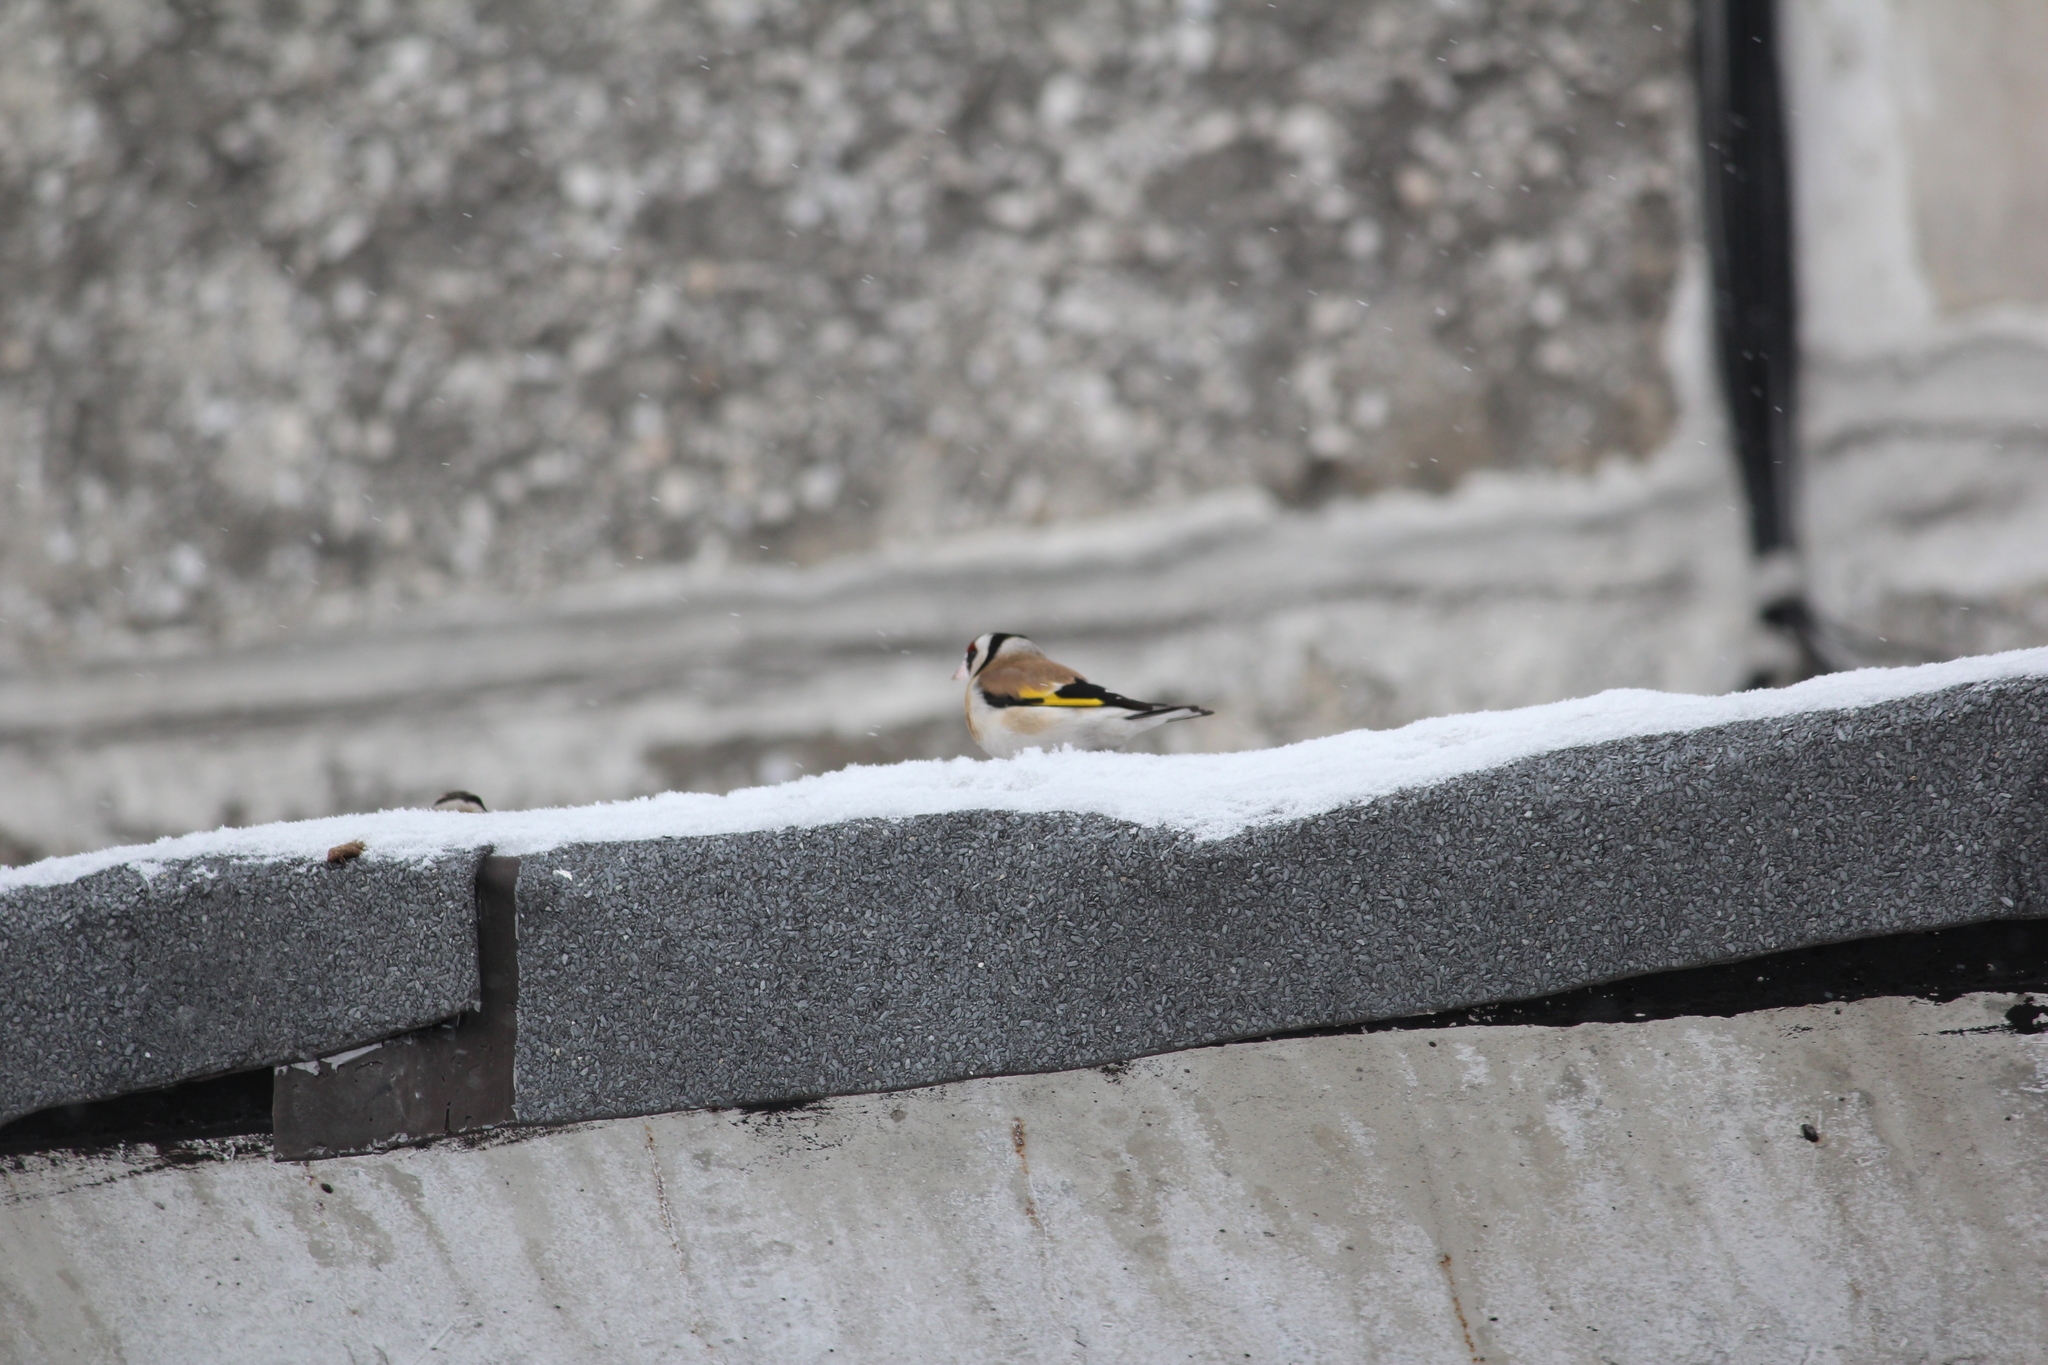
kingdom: Animalia
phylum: Chordata
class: Aves
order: Passeriformes
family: Fringillidae
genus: Carduelis
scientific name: Carduelis carduelis
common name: European goldfinch
